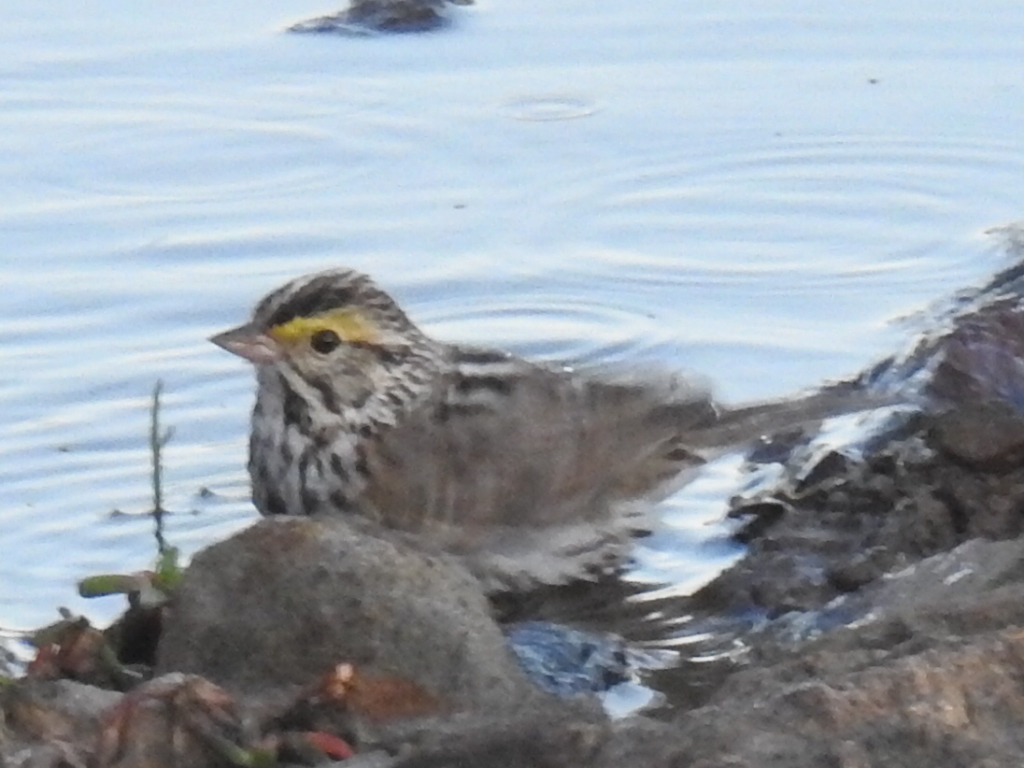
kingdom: Animalia
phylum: Chordata
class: Aves
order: Passeriformes
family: Passerellidae
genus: Passerculus
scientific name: Passerculus sandwichensis
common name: Savannah sparrow
